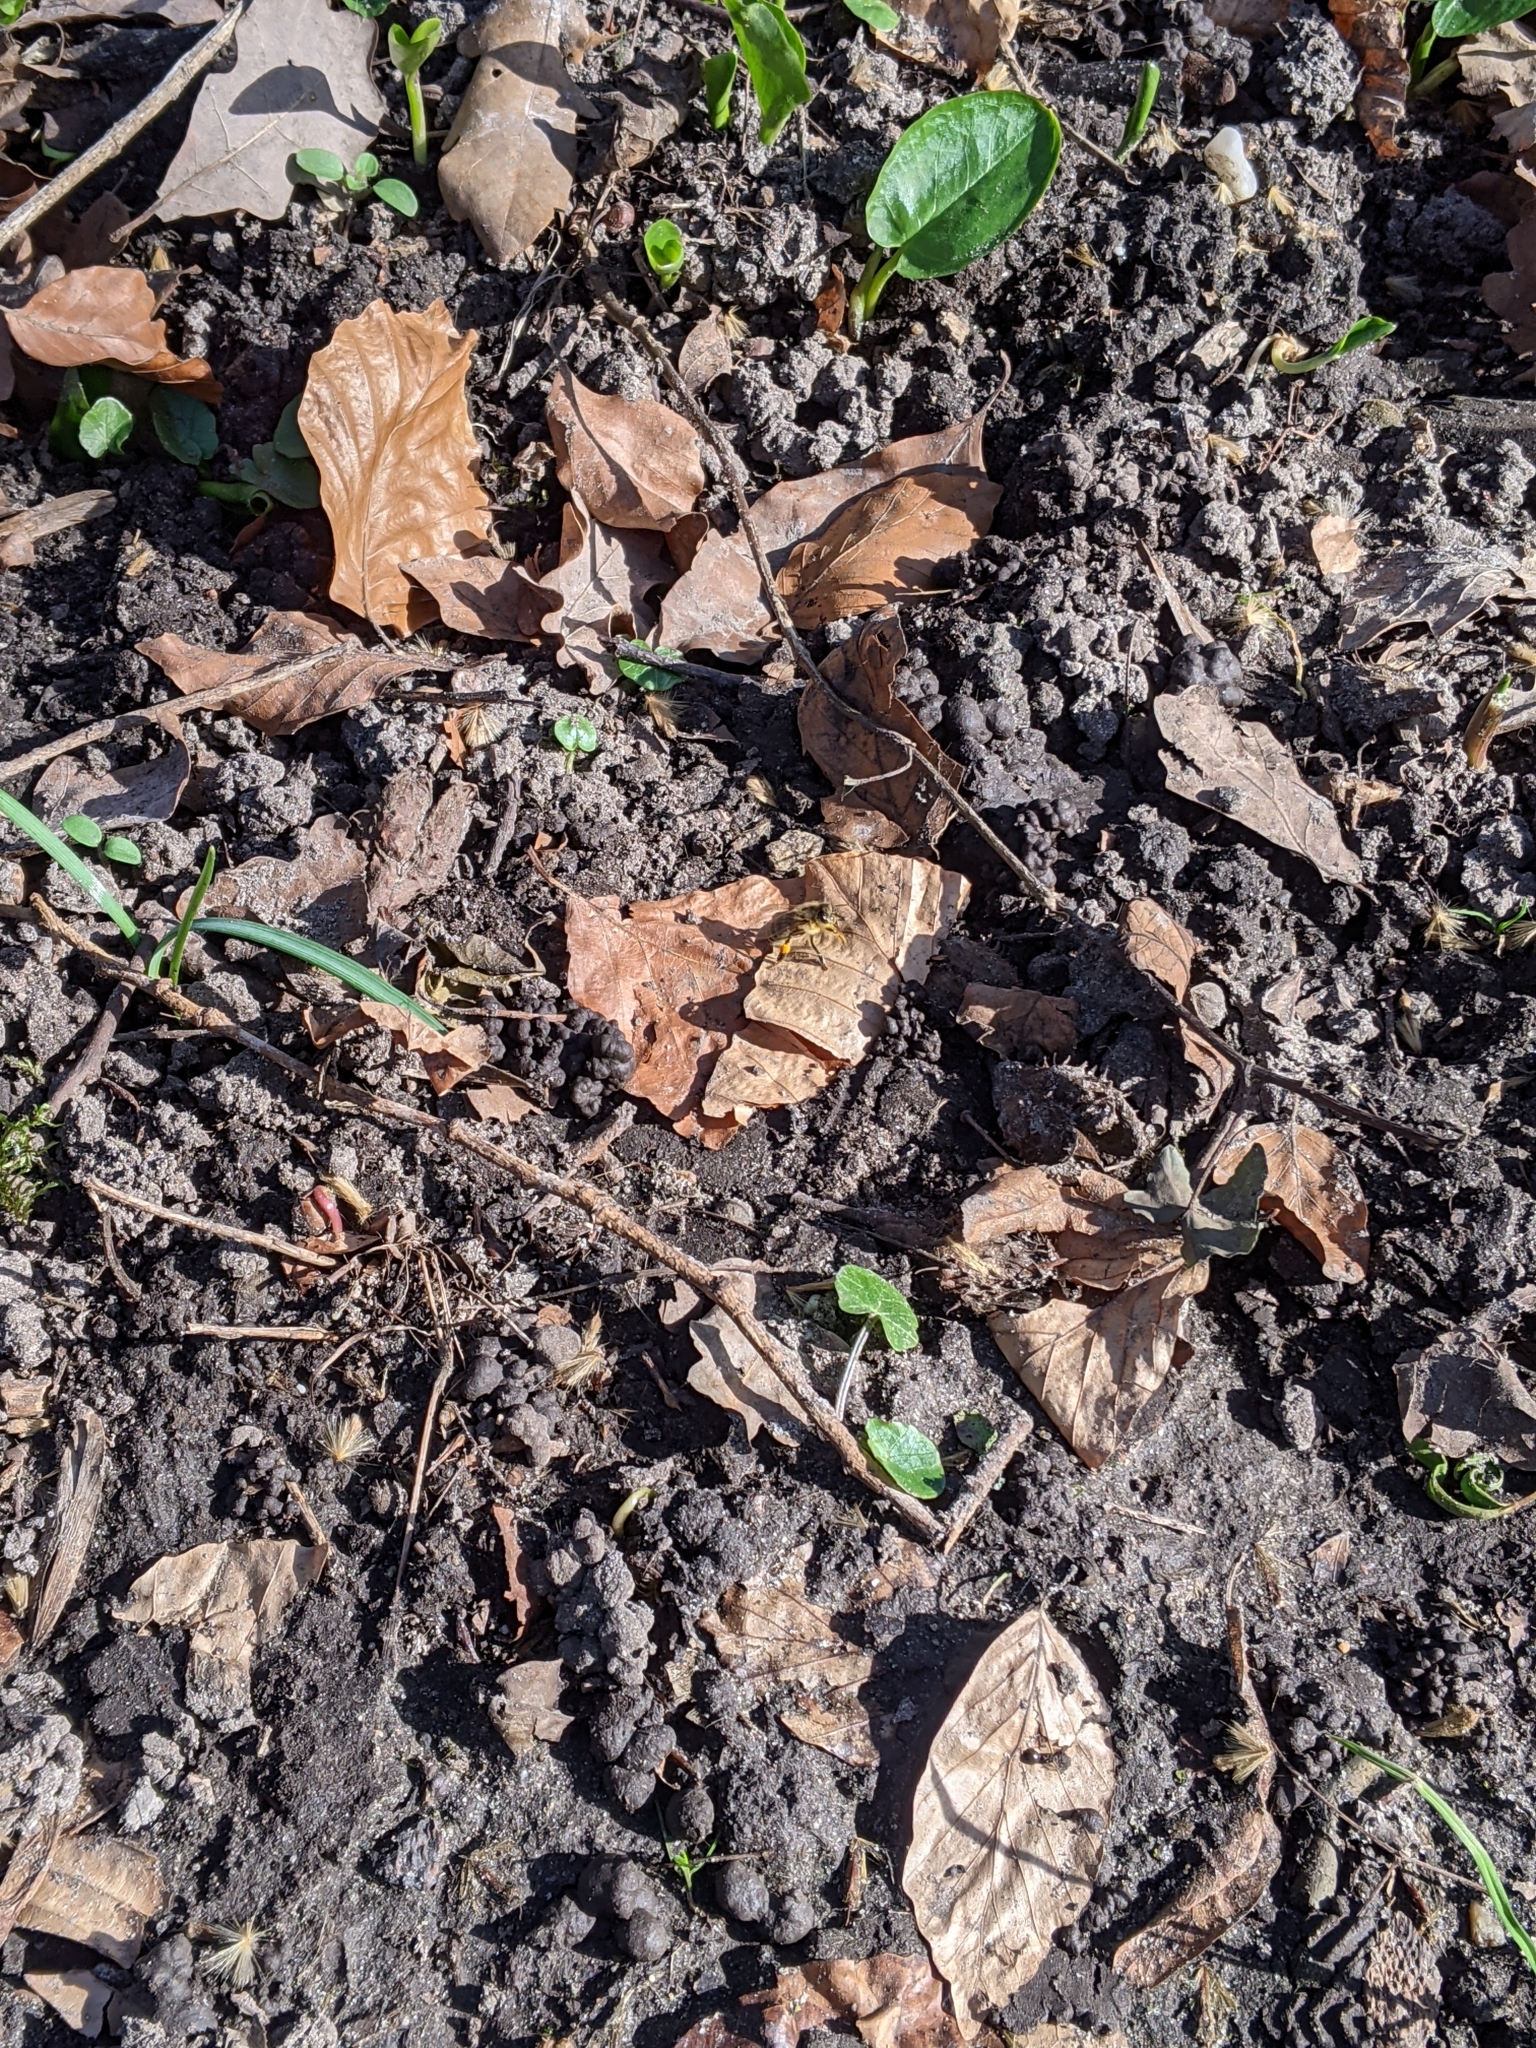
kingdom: Animalia
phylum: Arthropoda
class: Insecta
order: Hymenoptera
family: Apidae
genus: Apis
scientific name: Apis mellifera
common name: Honey bee
